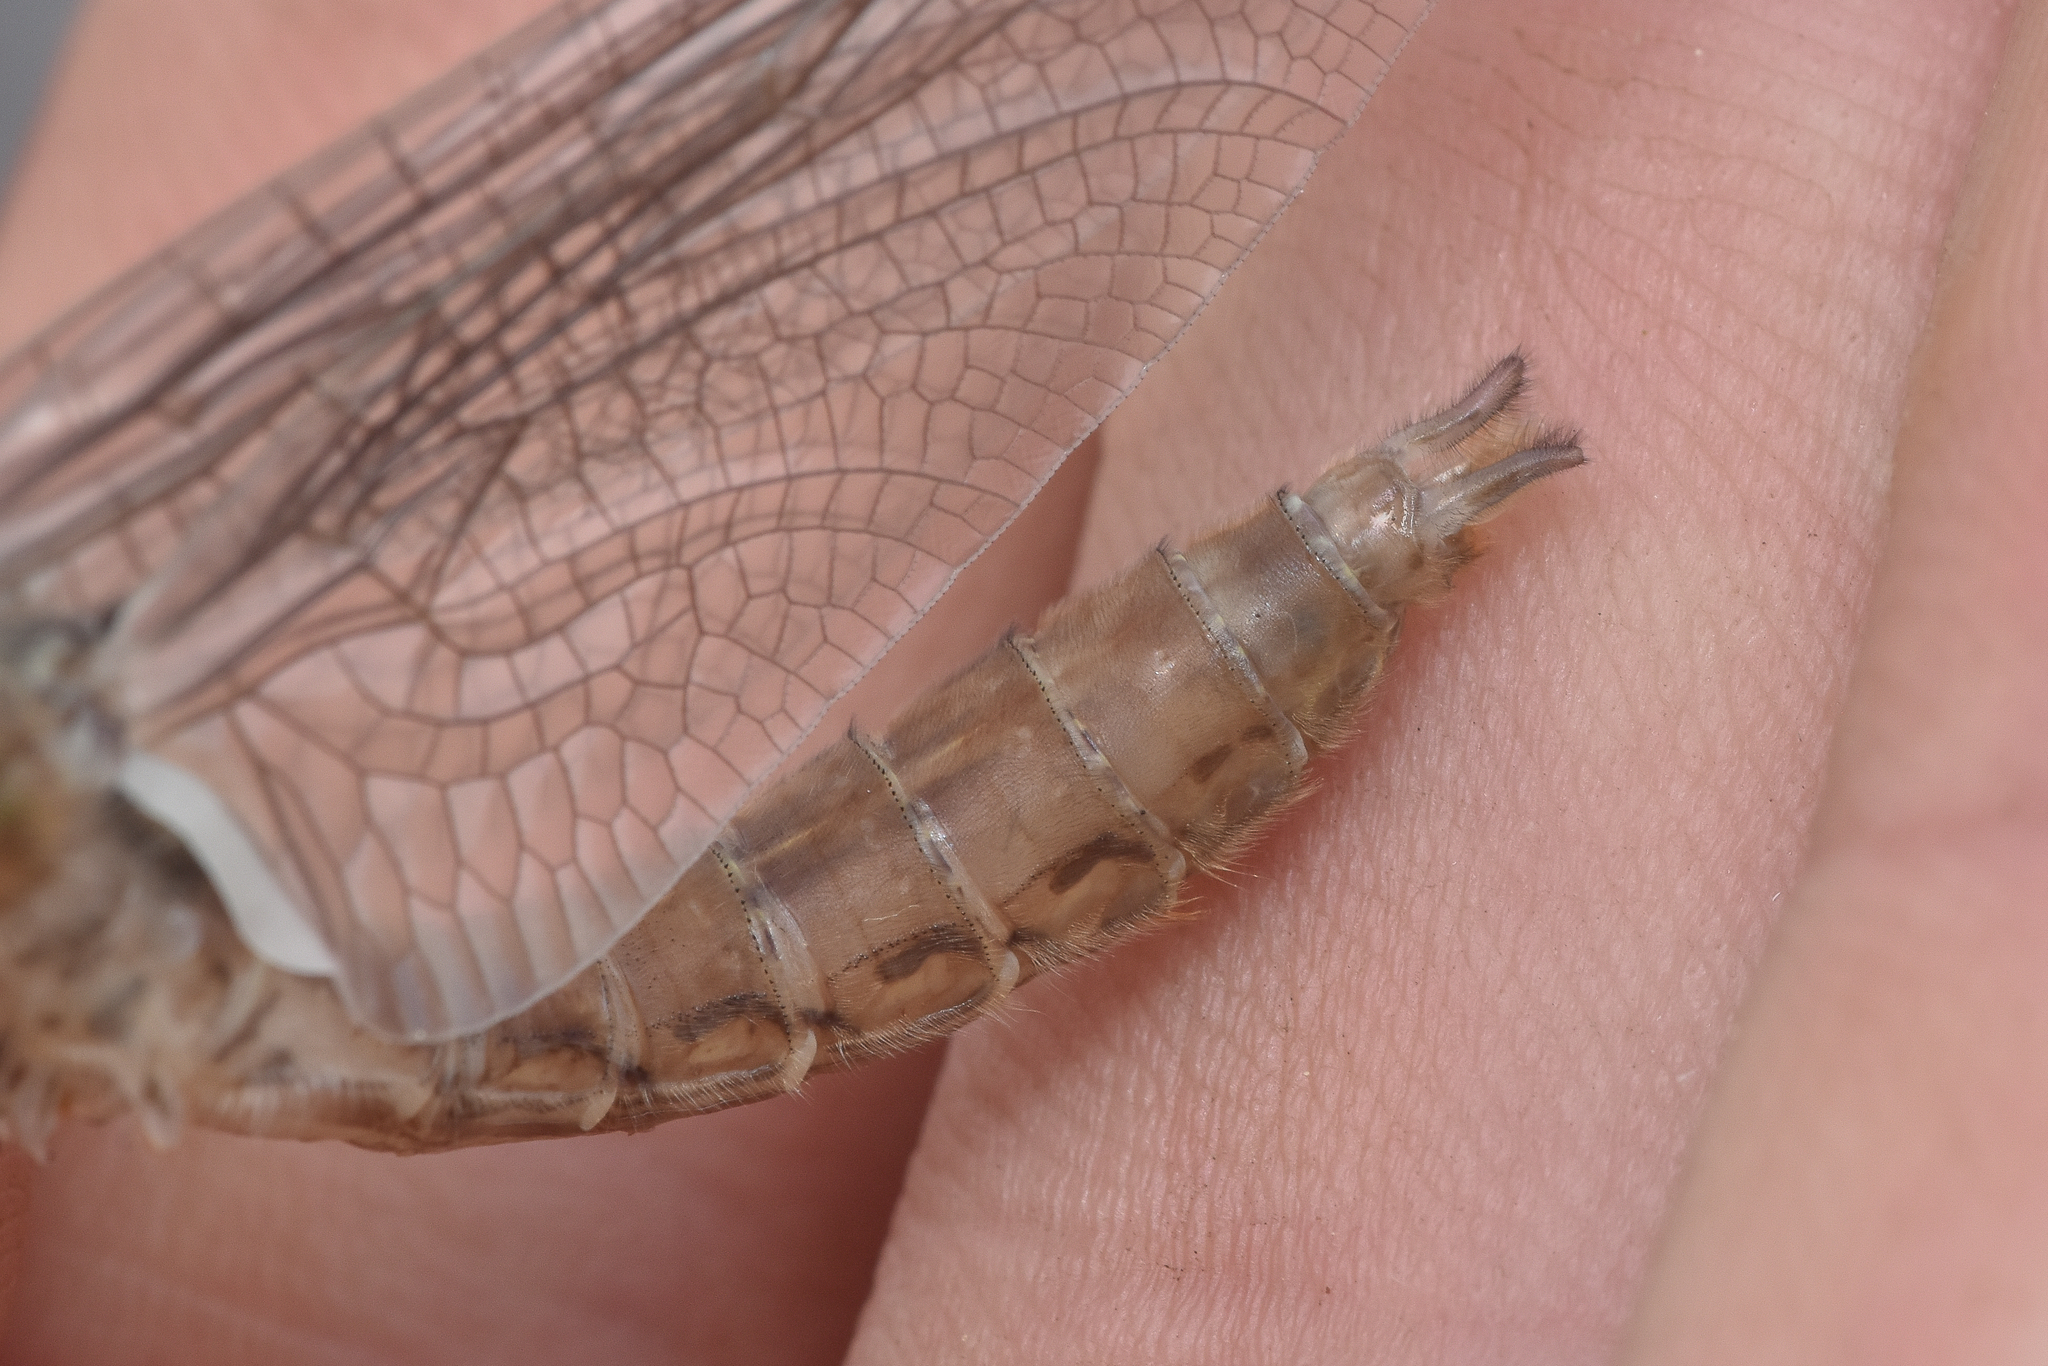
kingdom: Animalia
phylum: Arthropoda
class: Insecta
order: Odonata
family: Corduliidae
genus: Cordulia
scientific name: Cordulia shurtleffii
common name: American emerald
